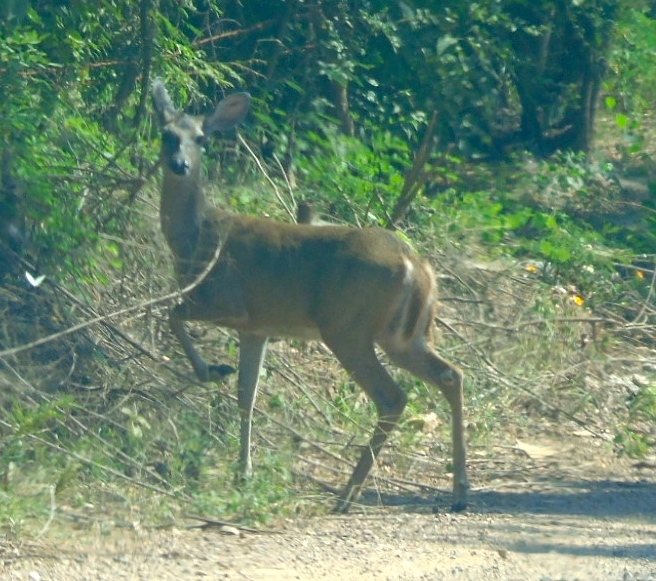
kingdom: Animalia
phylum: Chordata
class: Mammalia
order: Artiodactyla
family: Cervidae
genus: Odocoileus
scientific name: Odocoileus virginianus
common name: White-tailed deer
